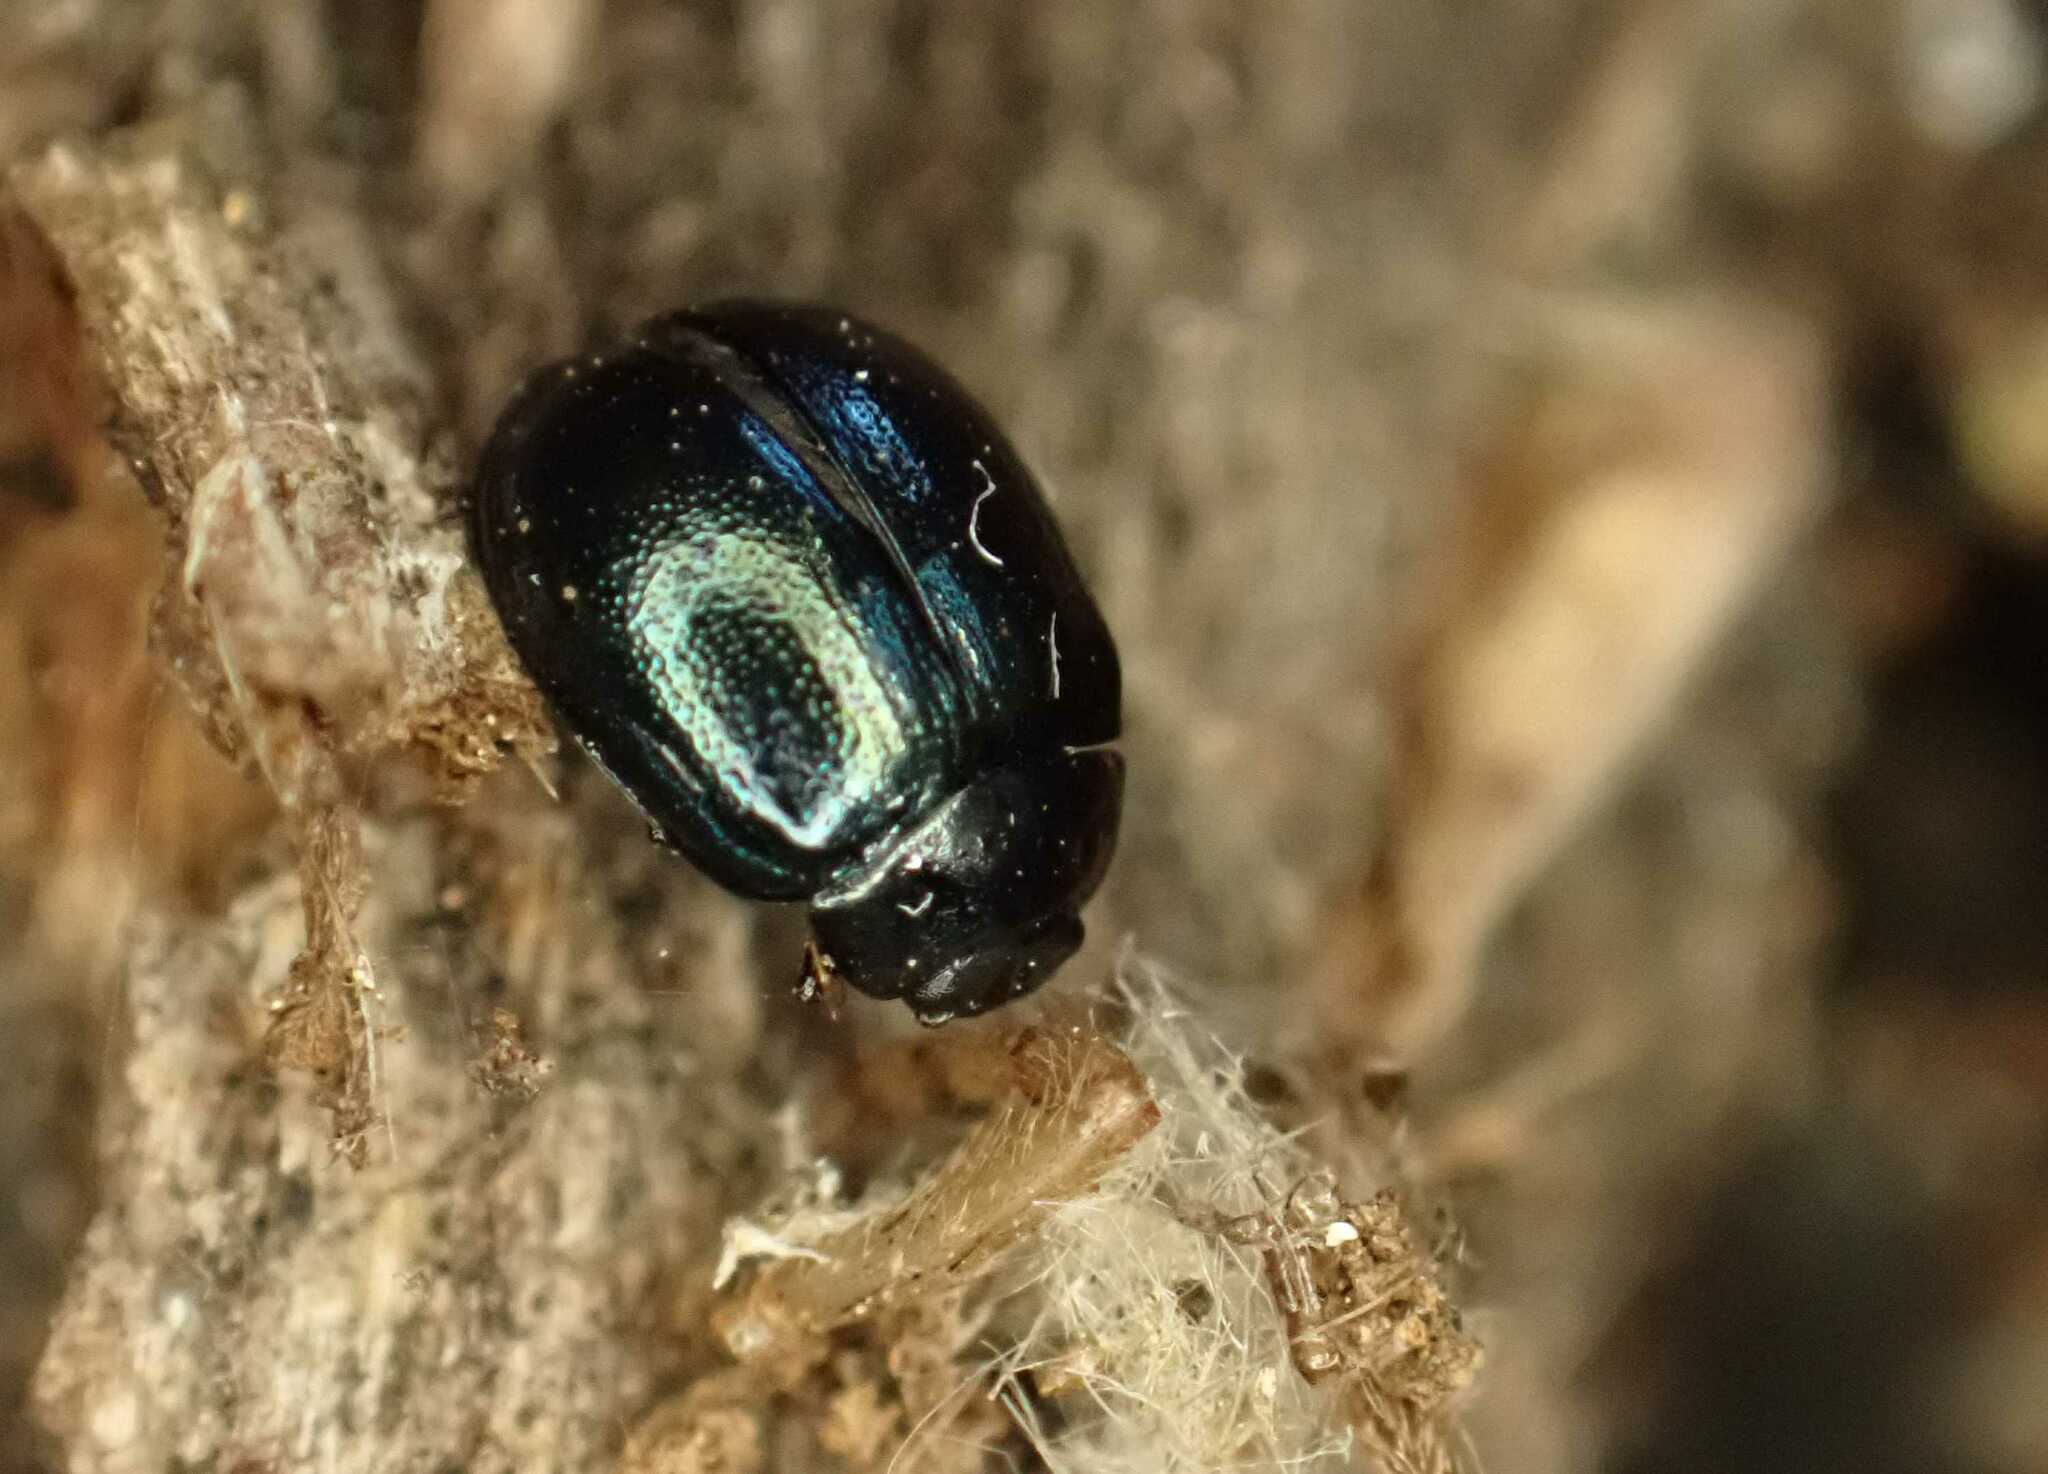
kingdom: Animalia
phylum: Arthropoda
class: Insecta
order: Coleoptera
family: Chrysomelidae
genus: Plagiodera
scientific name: Plagiodera versicolora
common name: Imported willow leaf beetle
